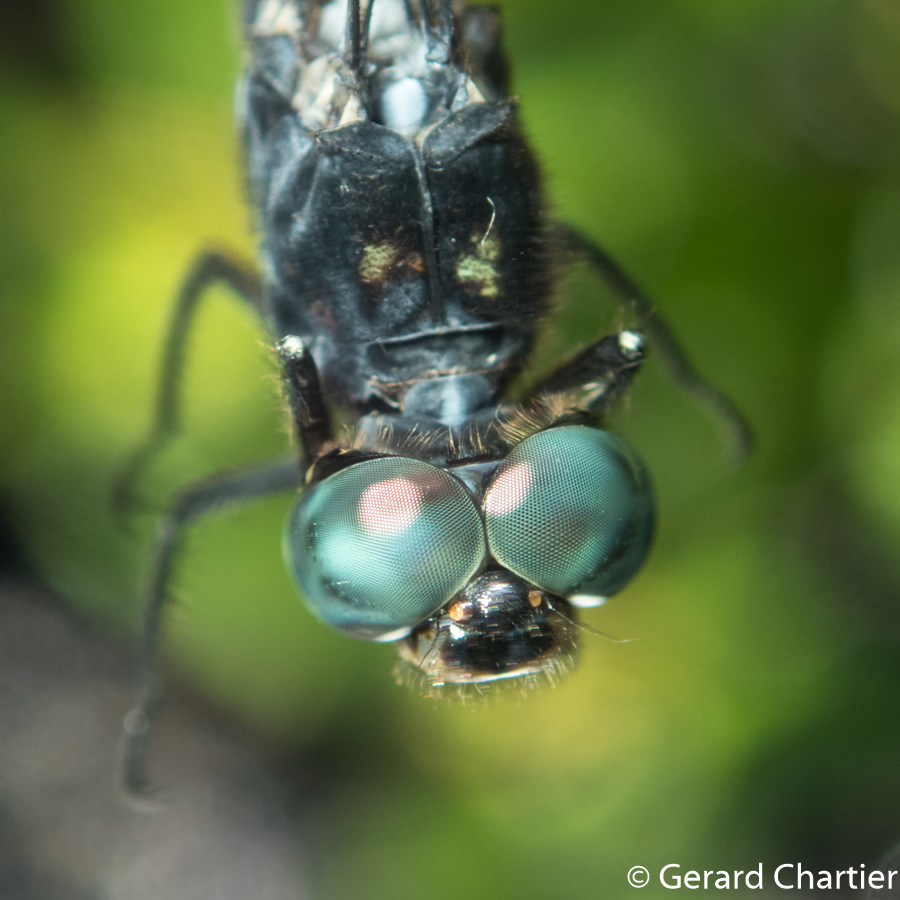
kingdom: Animalia
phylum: Arthropoda
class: Insecta
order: Odonata
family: Libellulidae
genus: Pornothemis
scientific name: Pornothemis starrei
